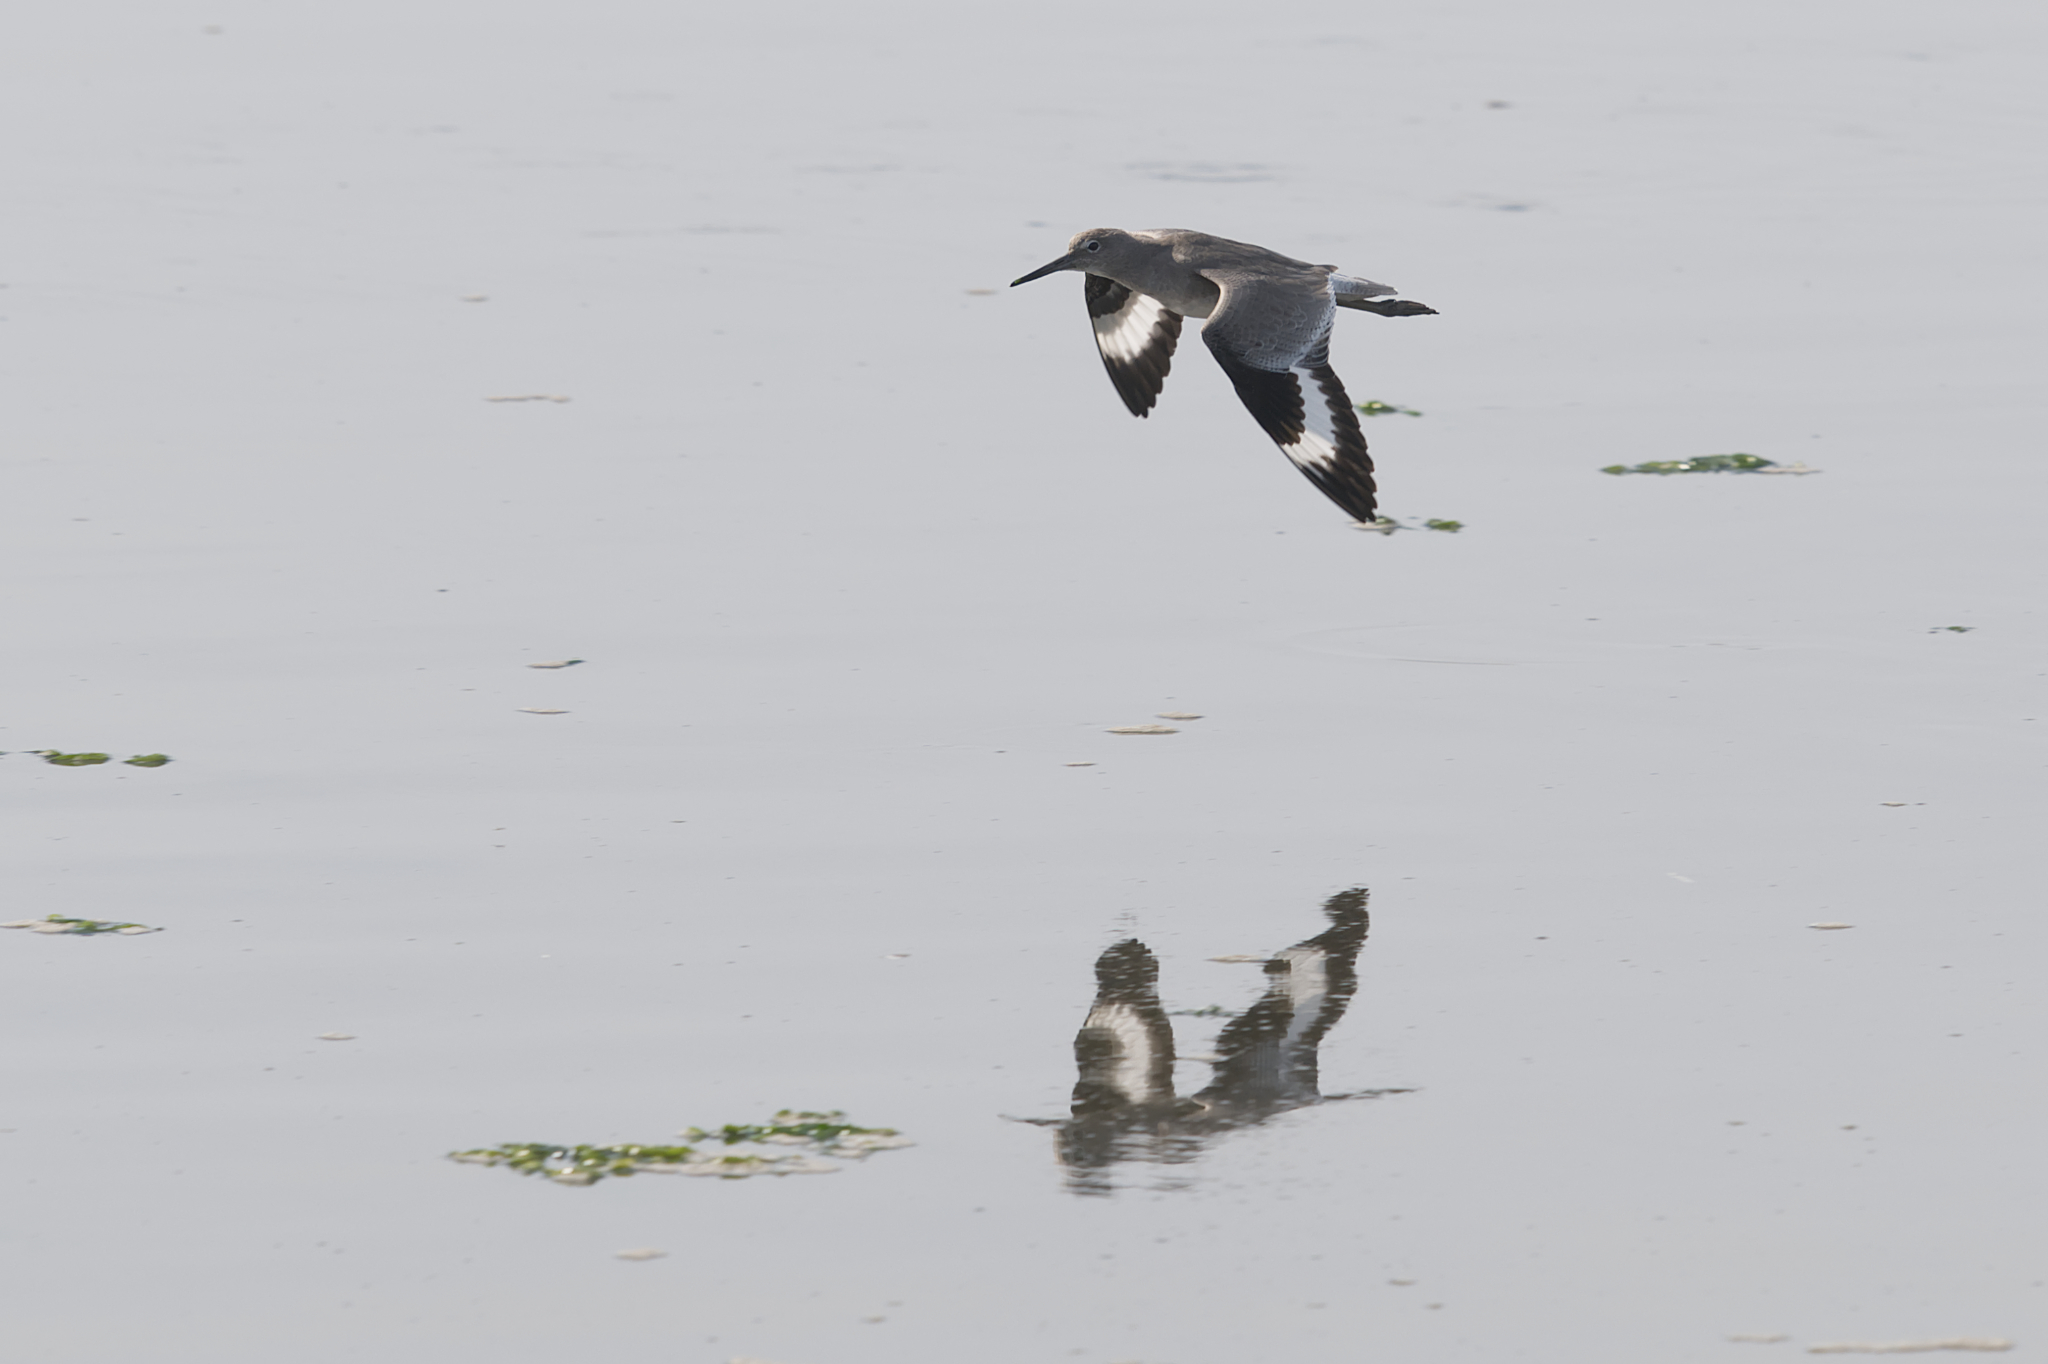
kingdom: Animalia
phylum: Chordata
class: Aves
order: Charadriiformes
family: Scolopacidae
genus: Tringa
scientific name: Tringa semipalmata
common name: Willet
